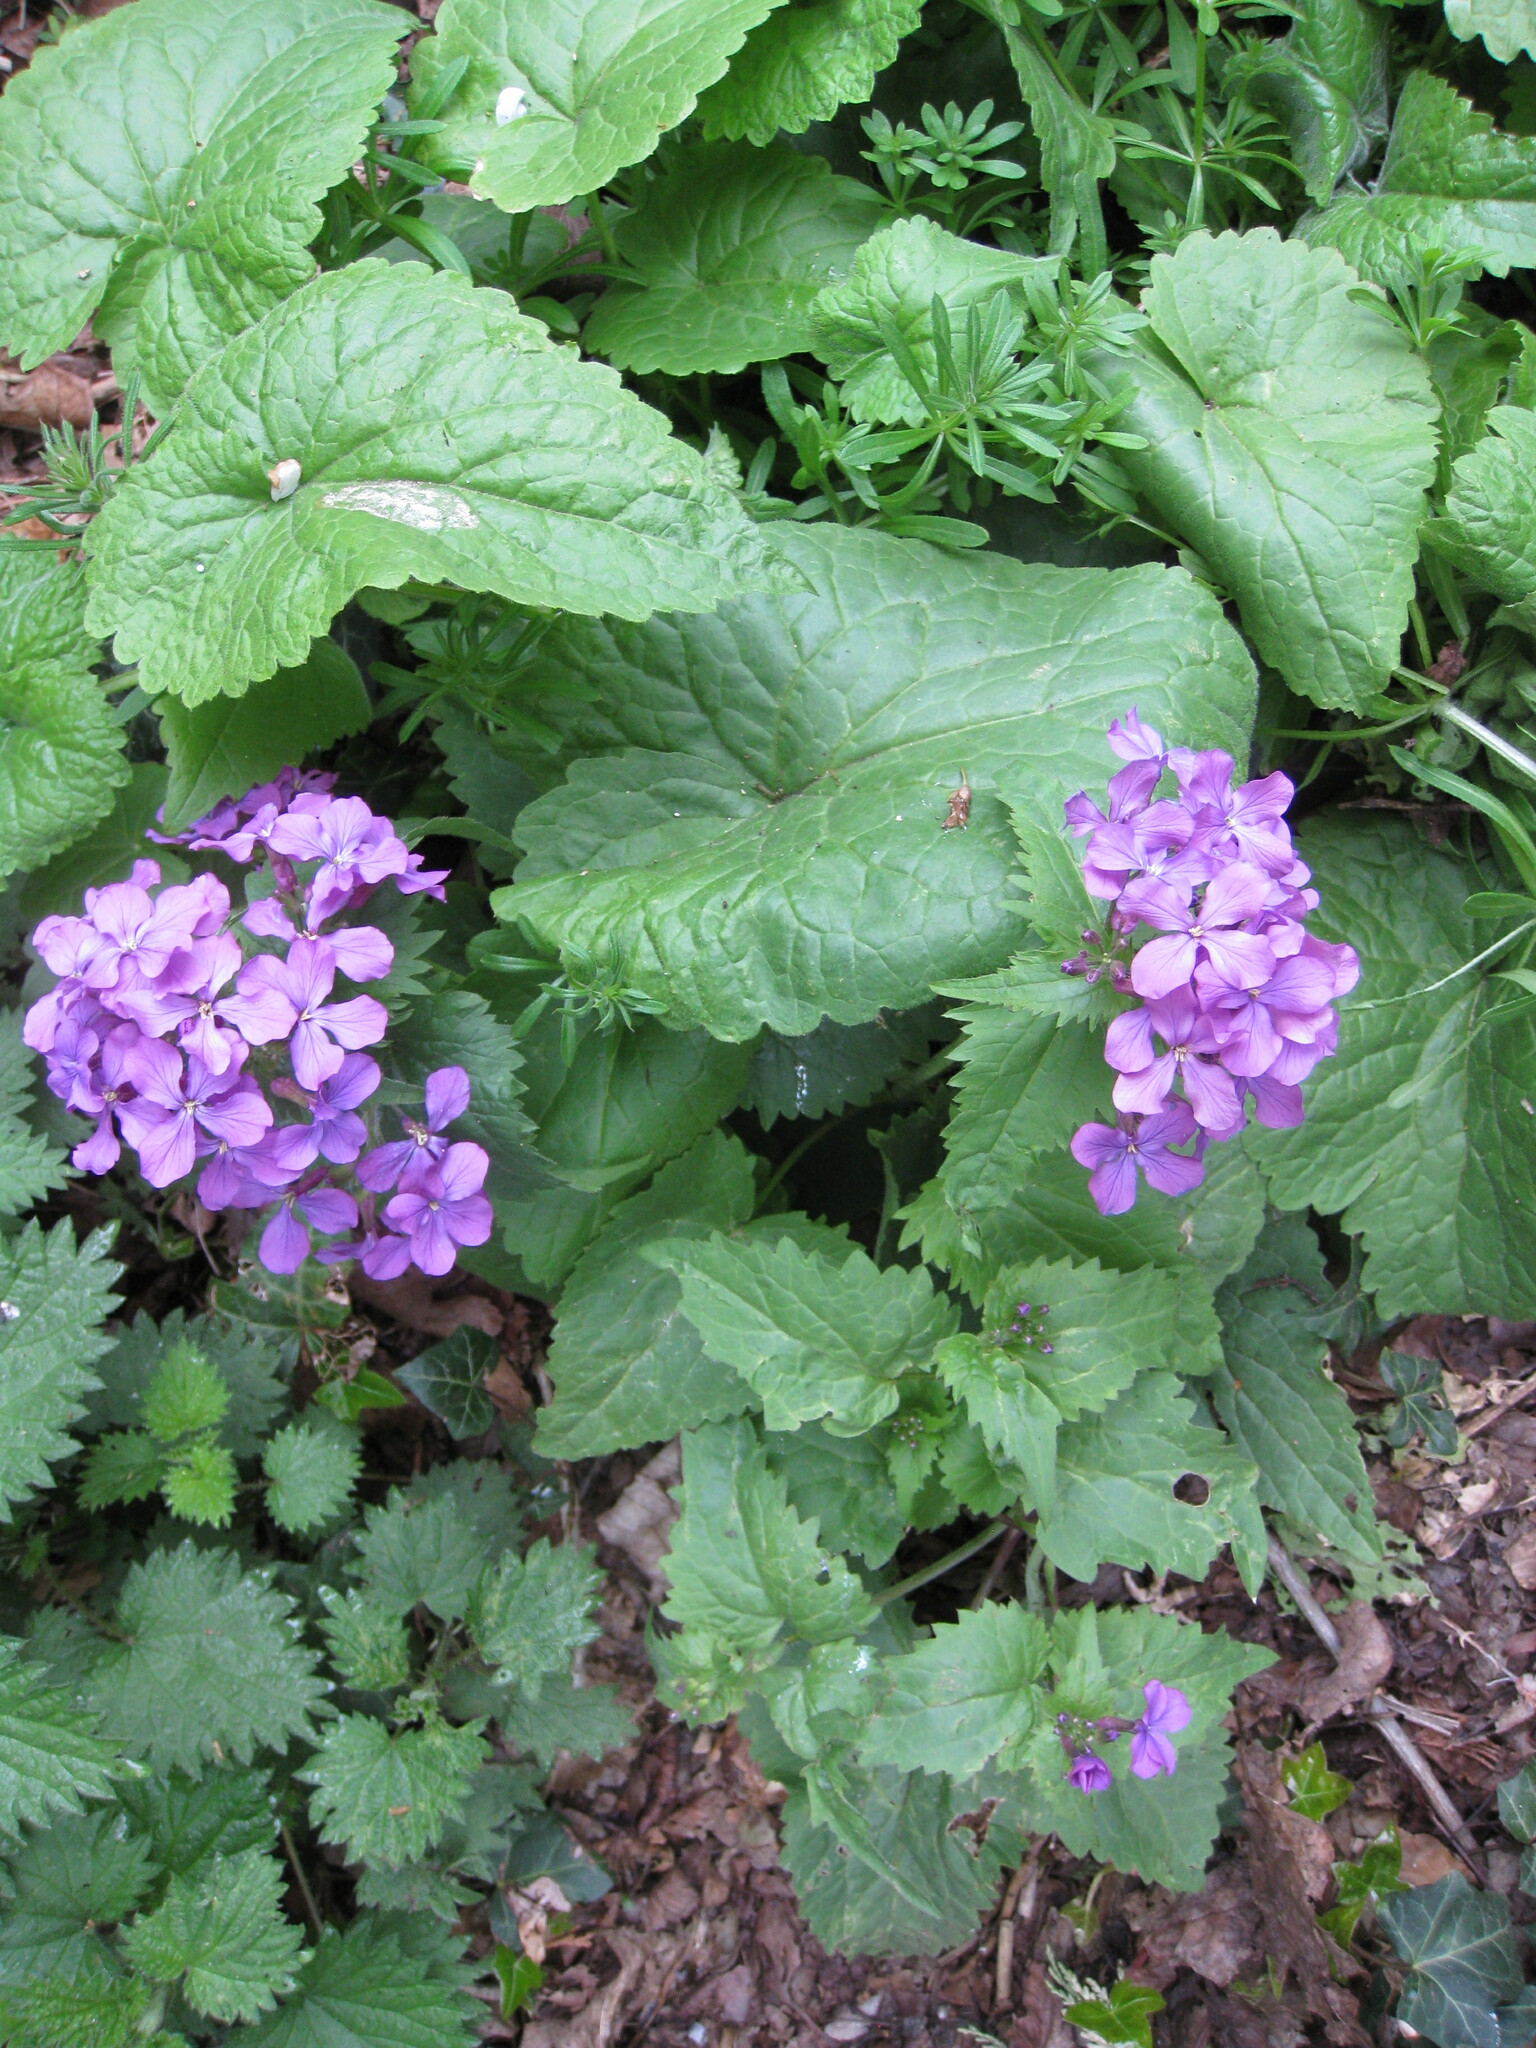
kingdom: Plantae
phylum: Tracheophyta
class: Magnoliopsida
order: Brassicales
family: Brassicaceae
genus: Lunaria
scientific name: Lunaria annua
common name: Honesty
